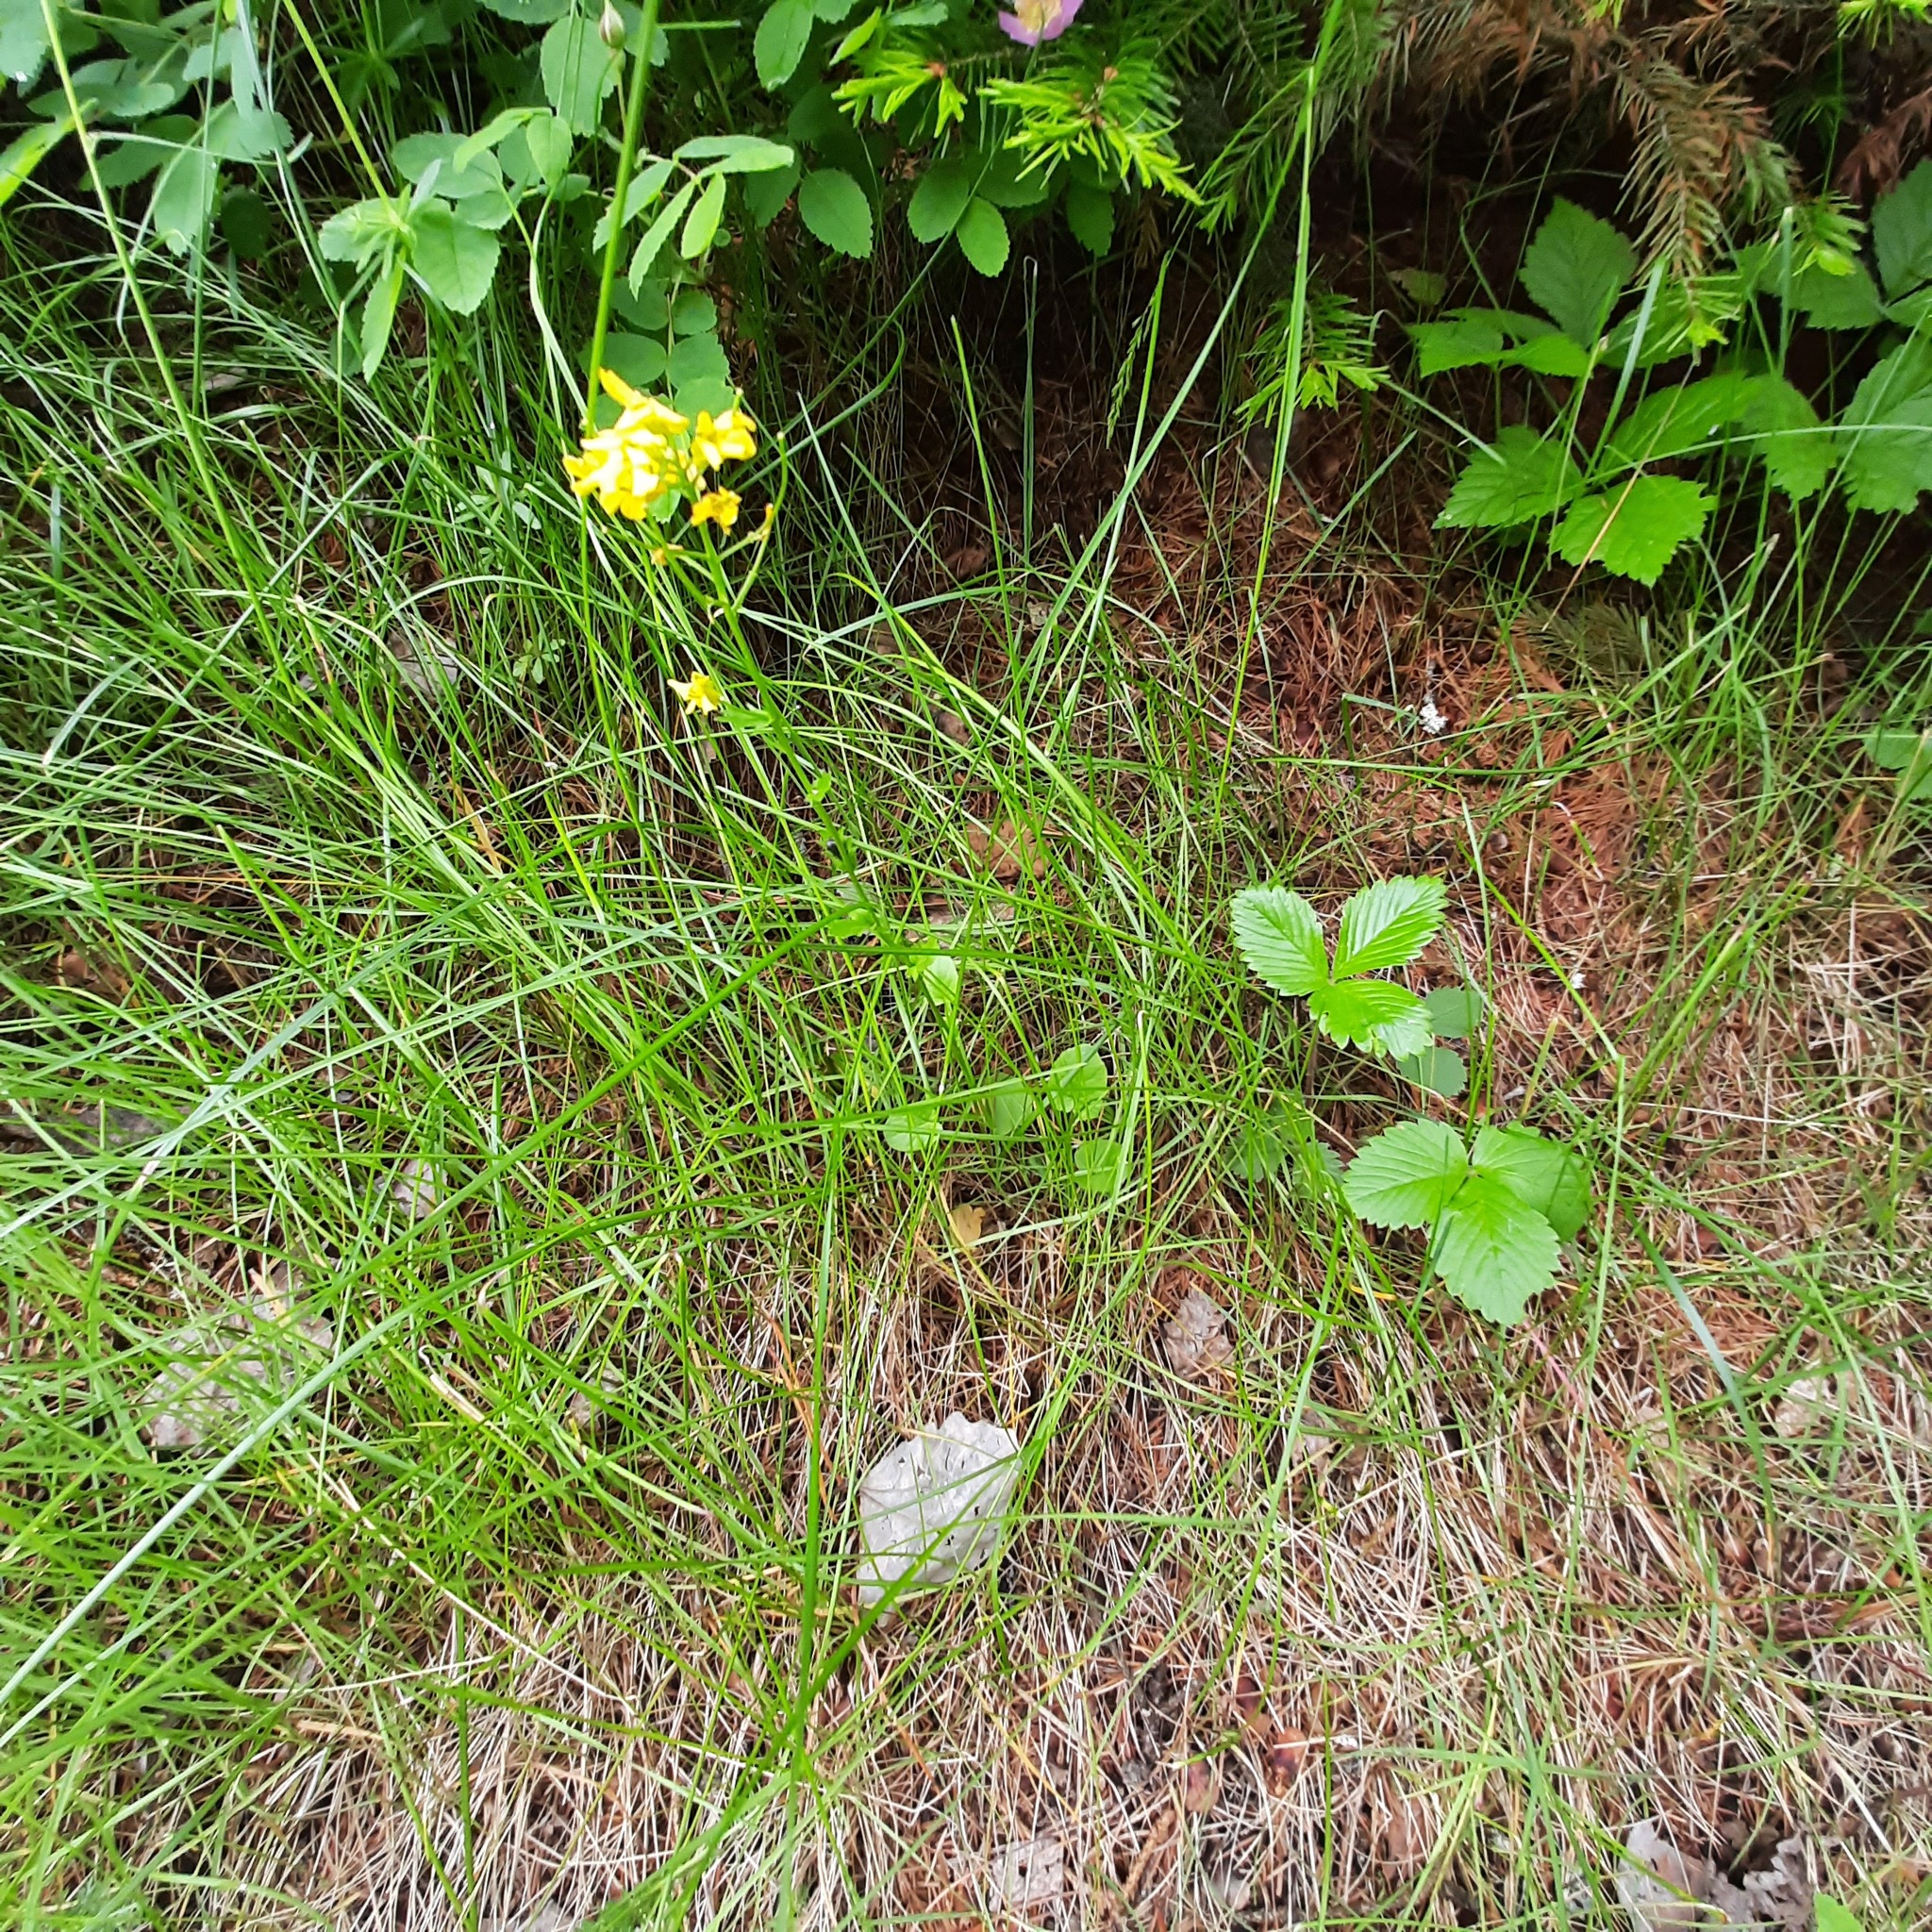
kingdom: Plantae
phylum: Tracheophyta
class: Magnoliopsida
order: Brassicales
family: Brassicaceae
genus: Barbarea
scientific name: Barbarea vulgaris
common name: Cressy-greens
